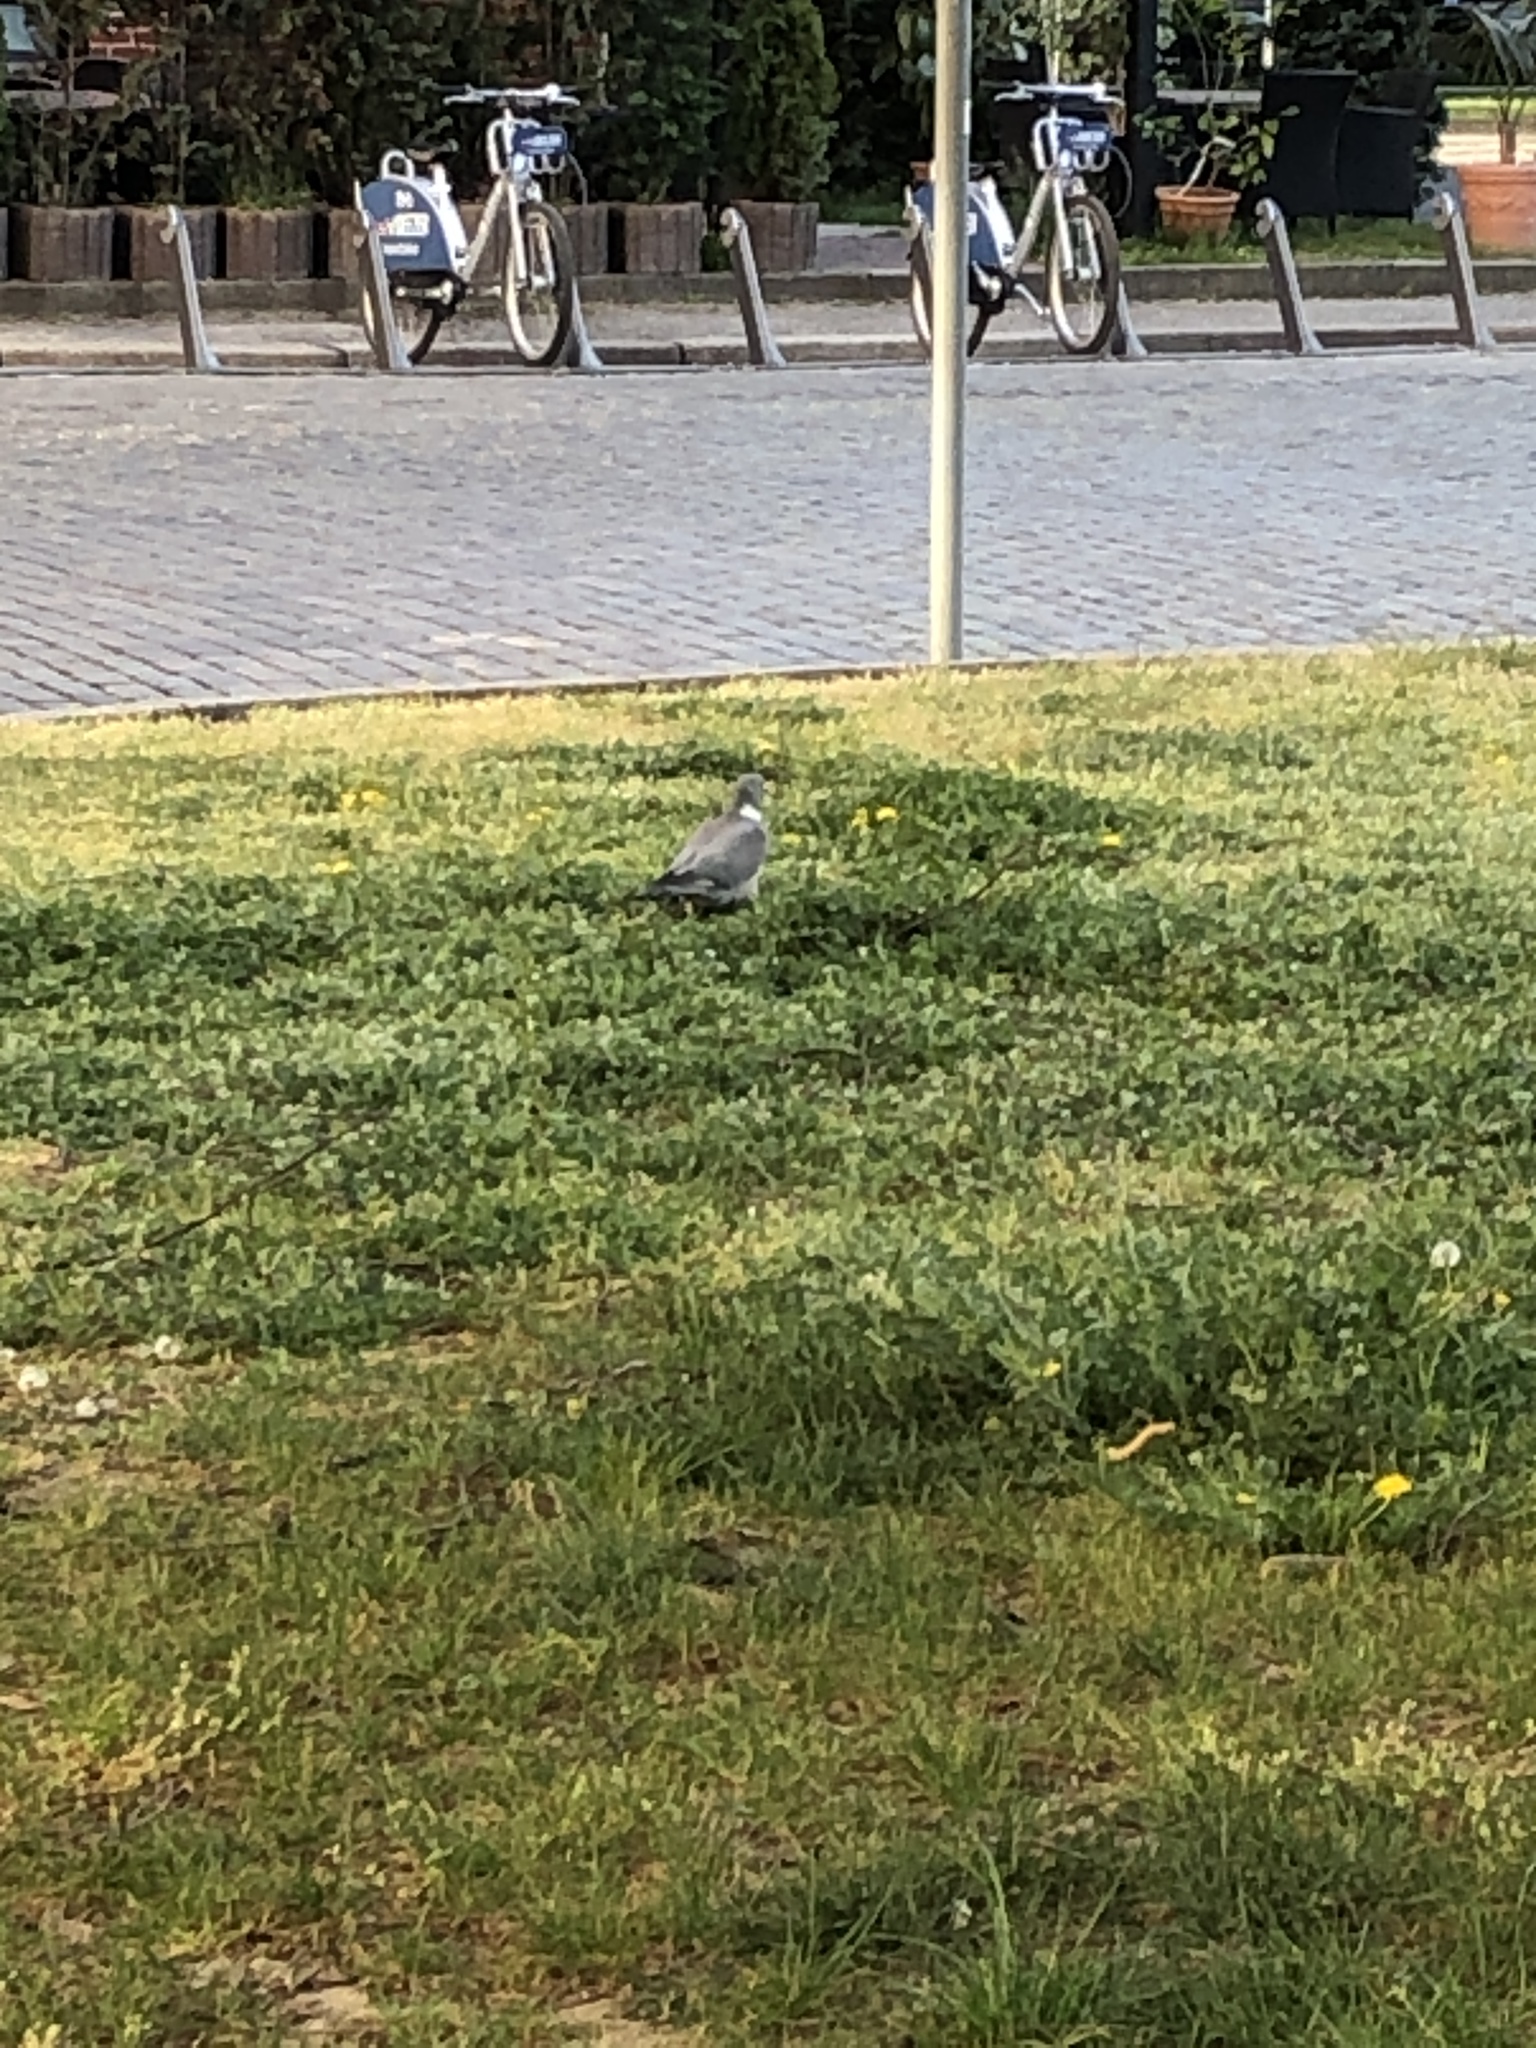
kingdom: Animalia
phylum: Chordata
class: Aves
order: Columbiformes
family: Columbidae
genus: Columba
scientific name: Columba palumbus
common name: Common wood pigeon
